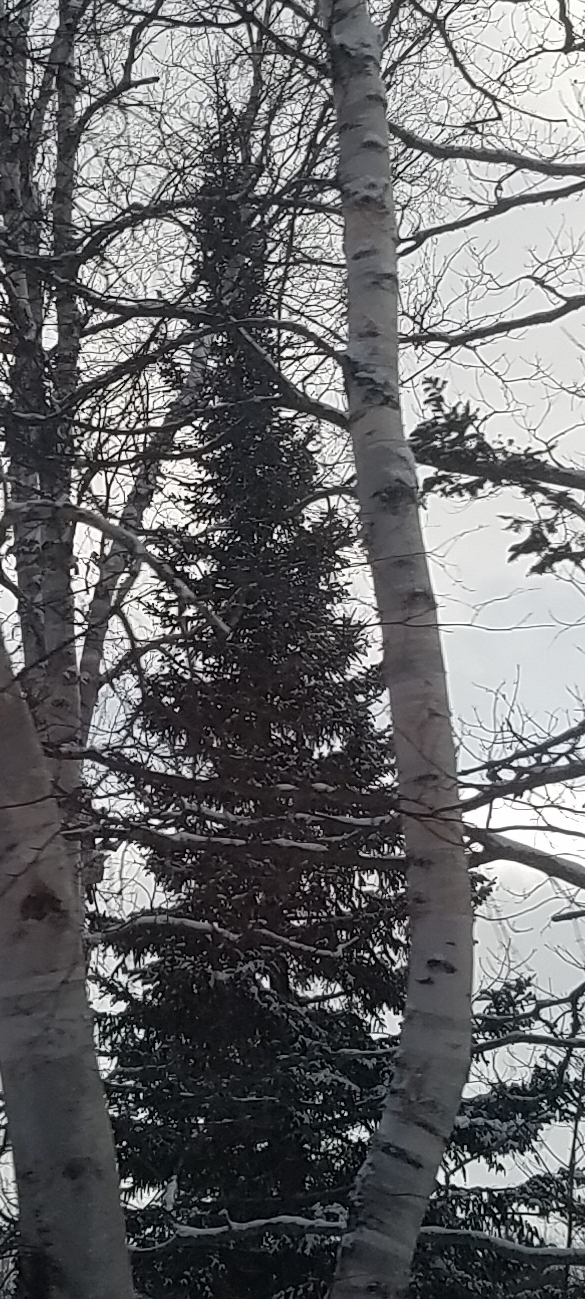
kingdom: Plantae
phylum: Tracheophyta
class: Pinopsida
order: Pinales
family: Pinaceae
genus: Pinus
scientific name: Pinus strobus
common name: Weymouth pine
